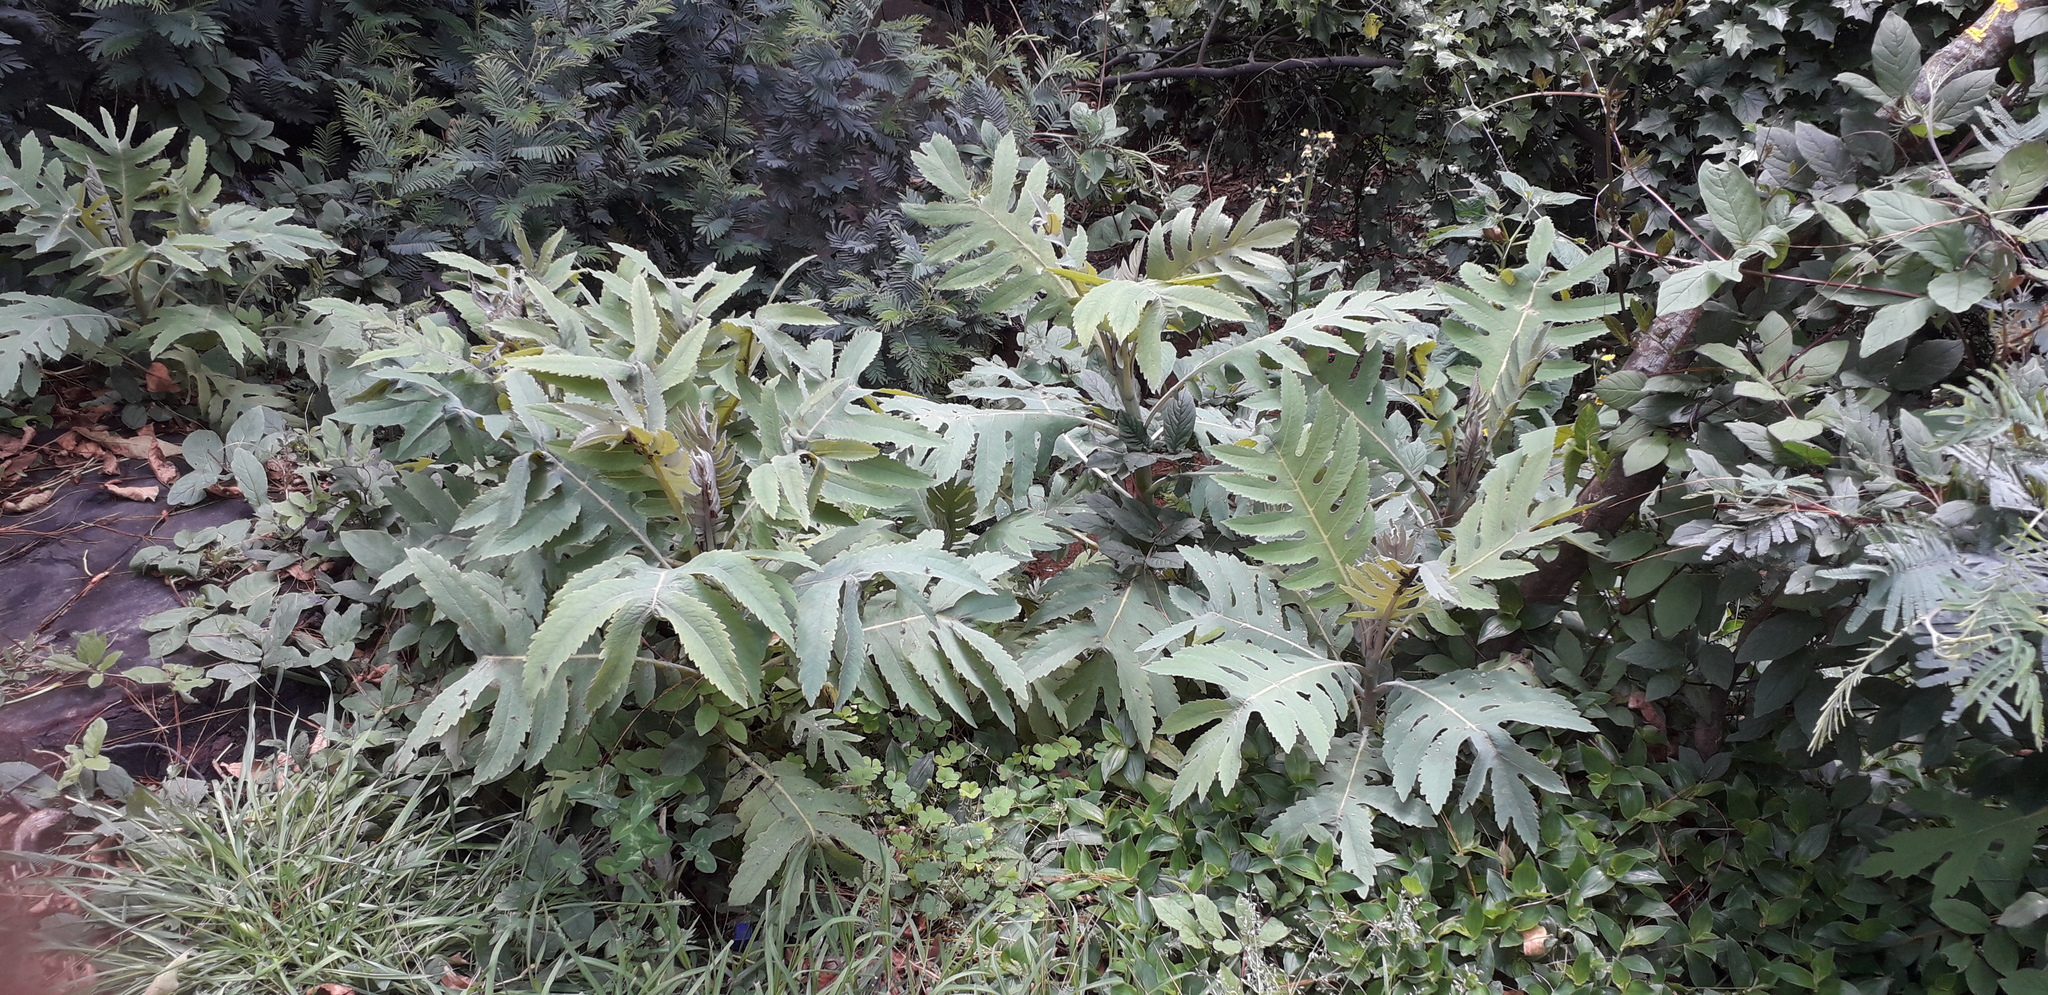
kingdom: Plantae
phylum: Tracheophyta
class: Magnoliopsida
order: Ranunculales
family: Papaveraceae
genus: Bocconia
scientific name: Bocconia frutescens
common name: Tree poppy
